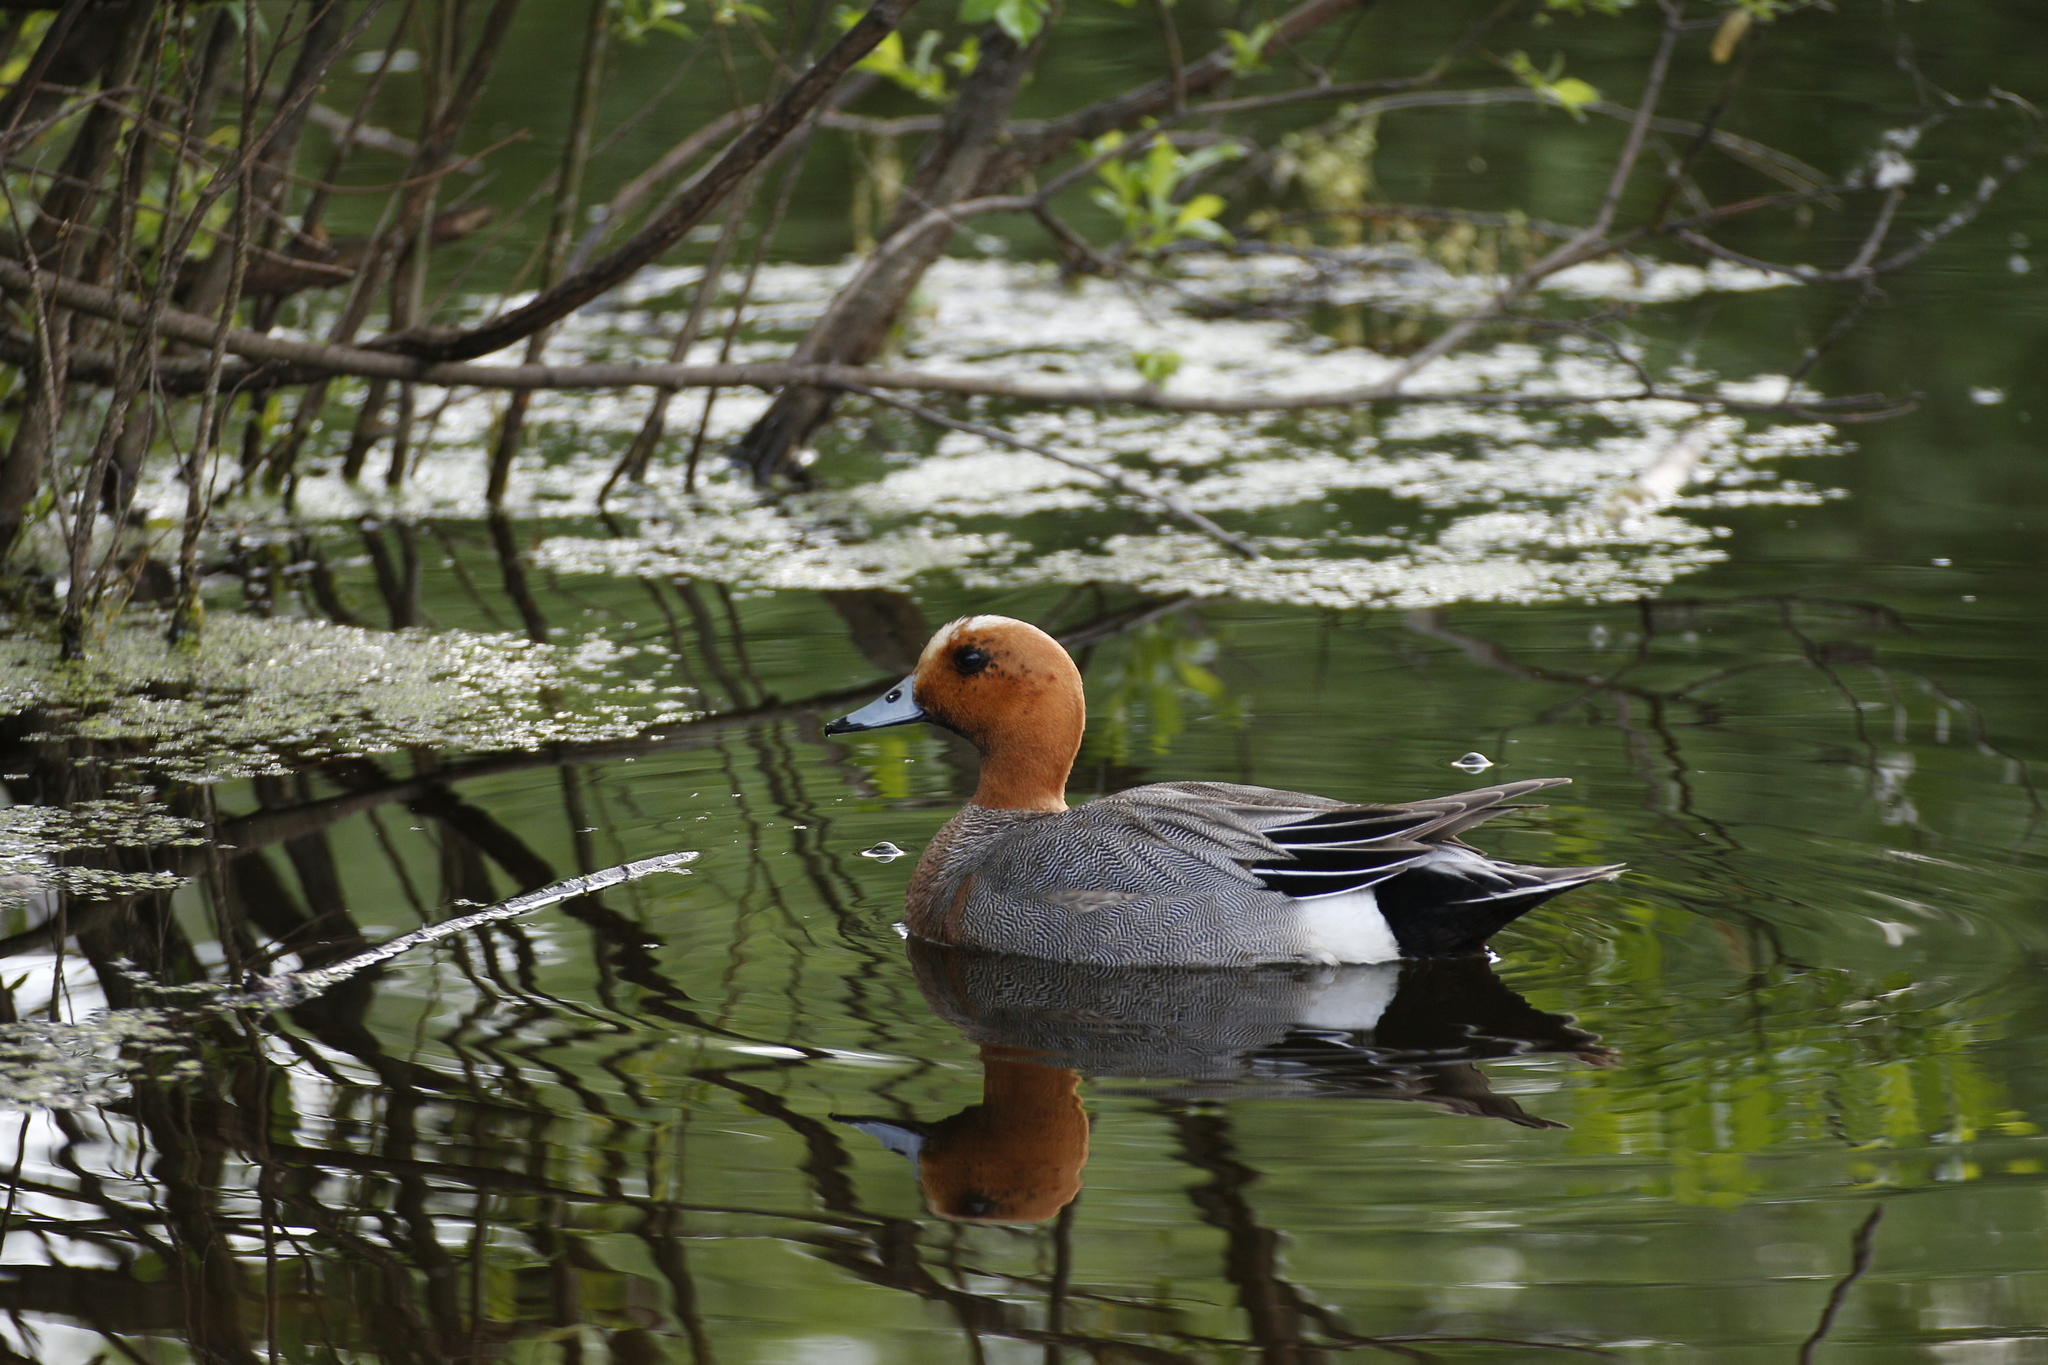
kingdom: Animalia
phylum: Chordata
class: Aves
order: Anseriformes
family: Anatidae
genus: Mareca
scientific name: Mareca penelope
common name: Eurasian wigeon
